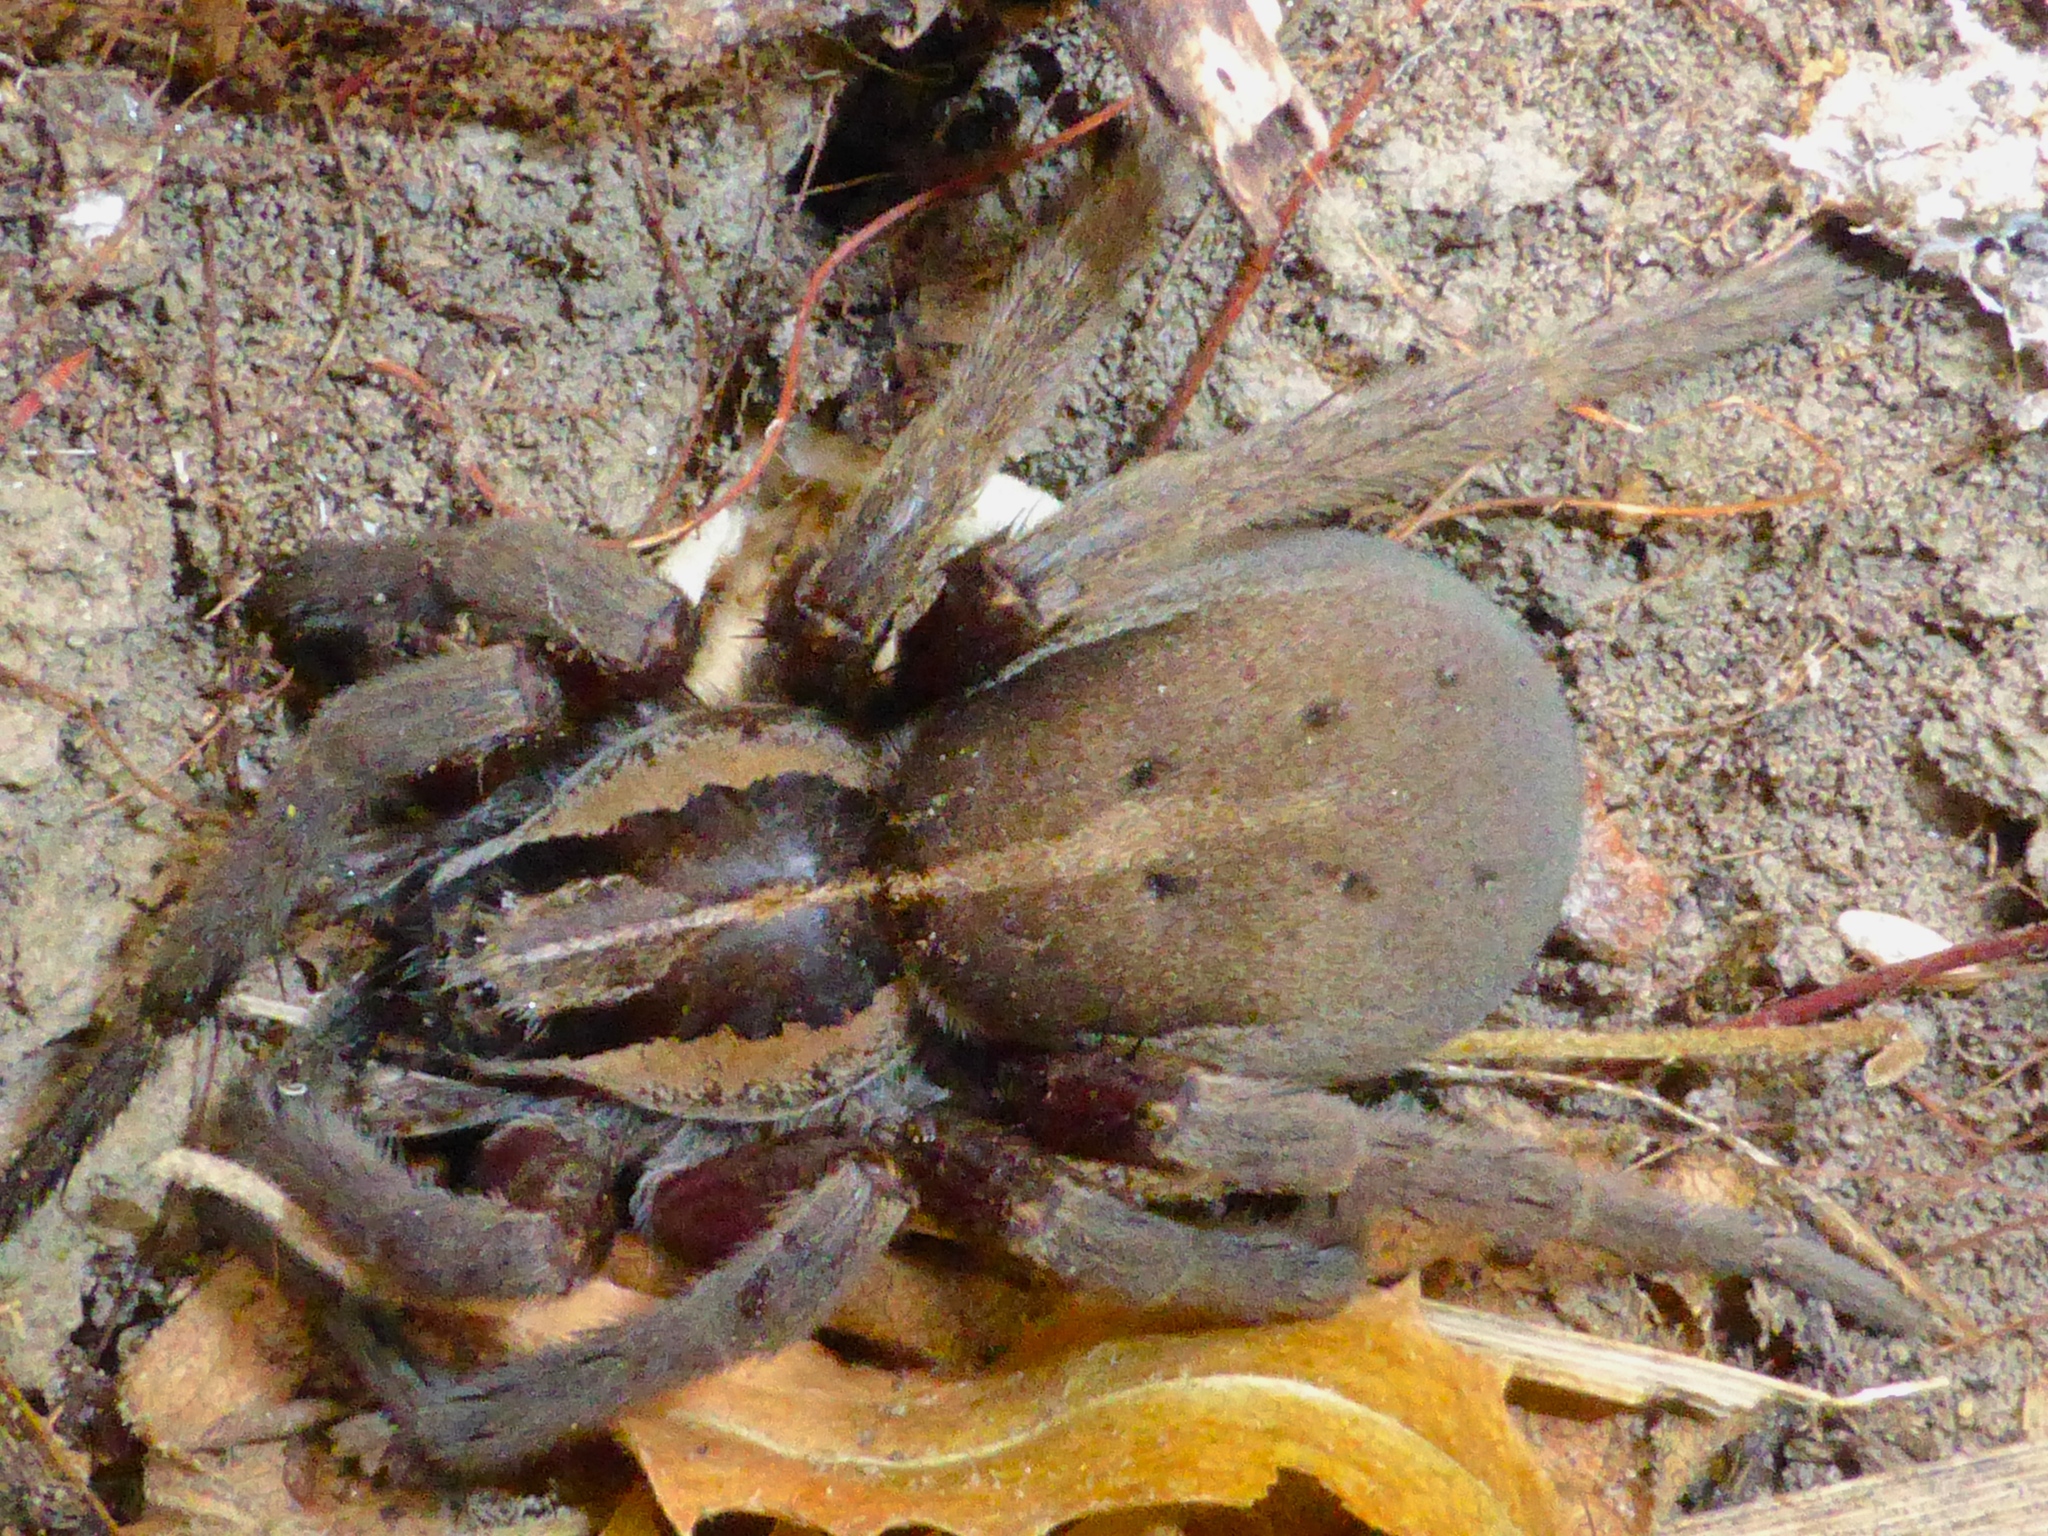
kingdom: Animalia
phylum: Arthropoda
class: Arachnida
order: Araneae
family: Pisauridae
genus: Dolomedes
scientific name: Dolomedes minor
